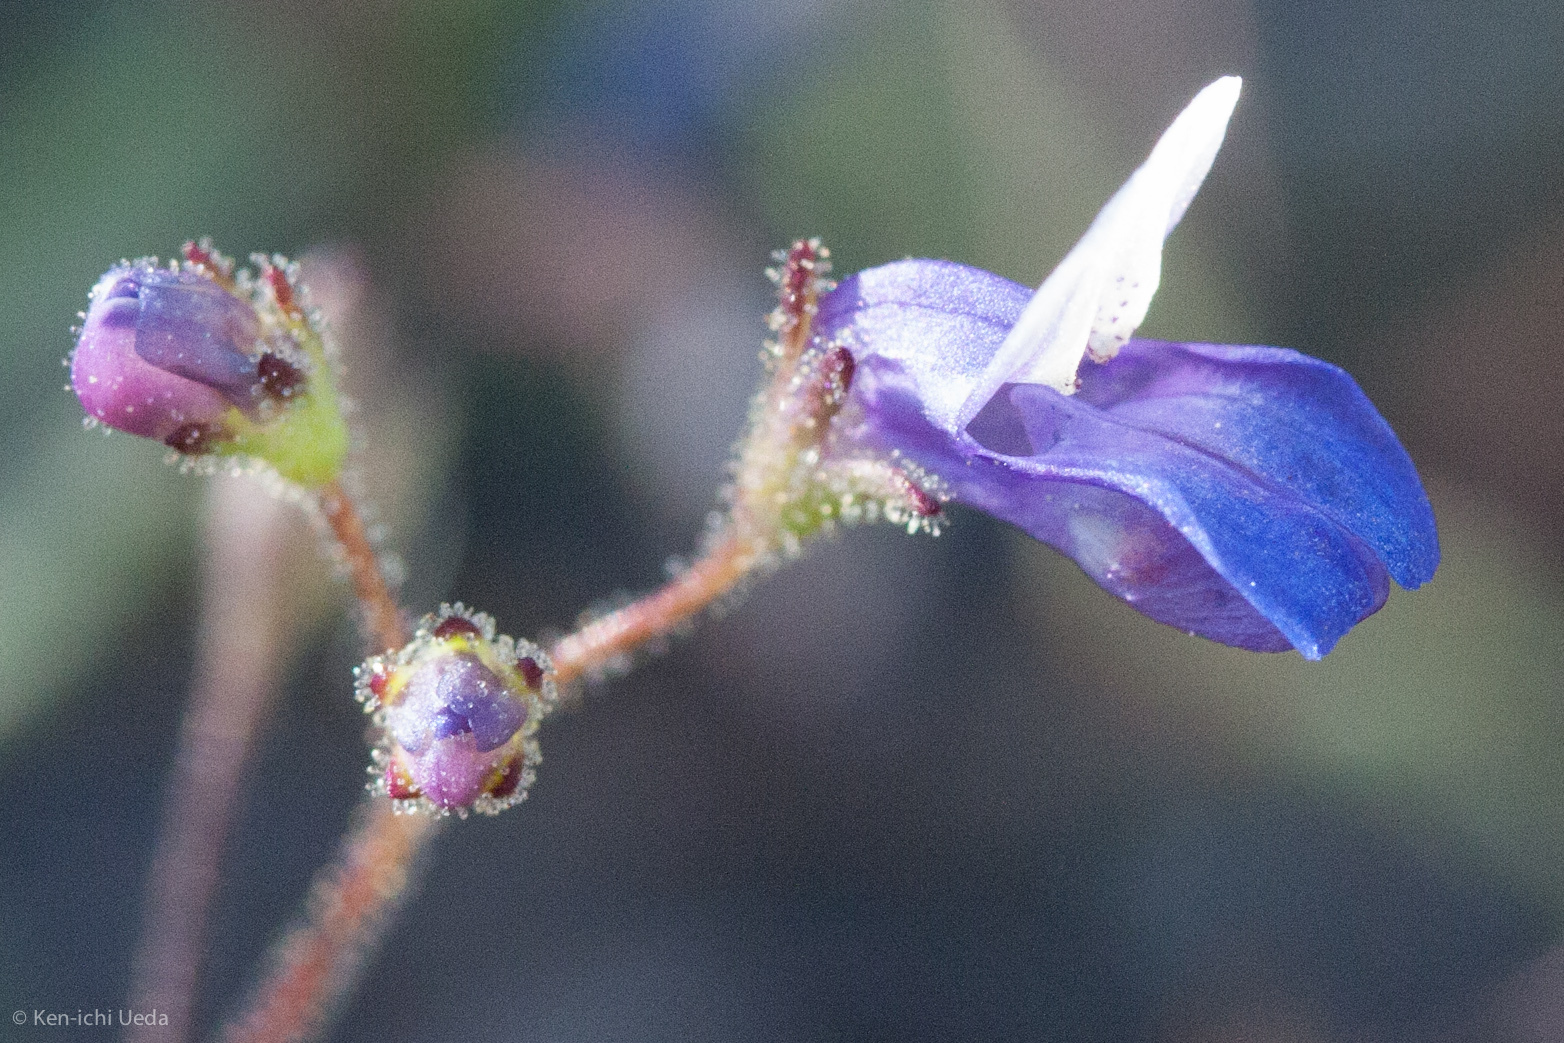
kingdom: Plantae
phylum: Tracheophyta
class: Magnoliopsida
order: Lamiales
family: Plantaginaceae
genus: Collinsia
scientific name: Collinsia torreyi
